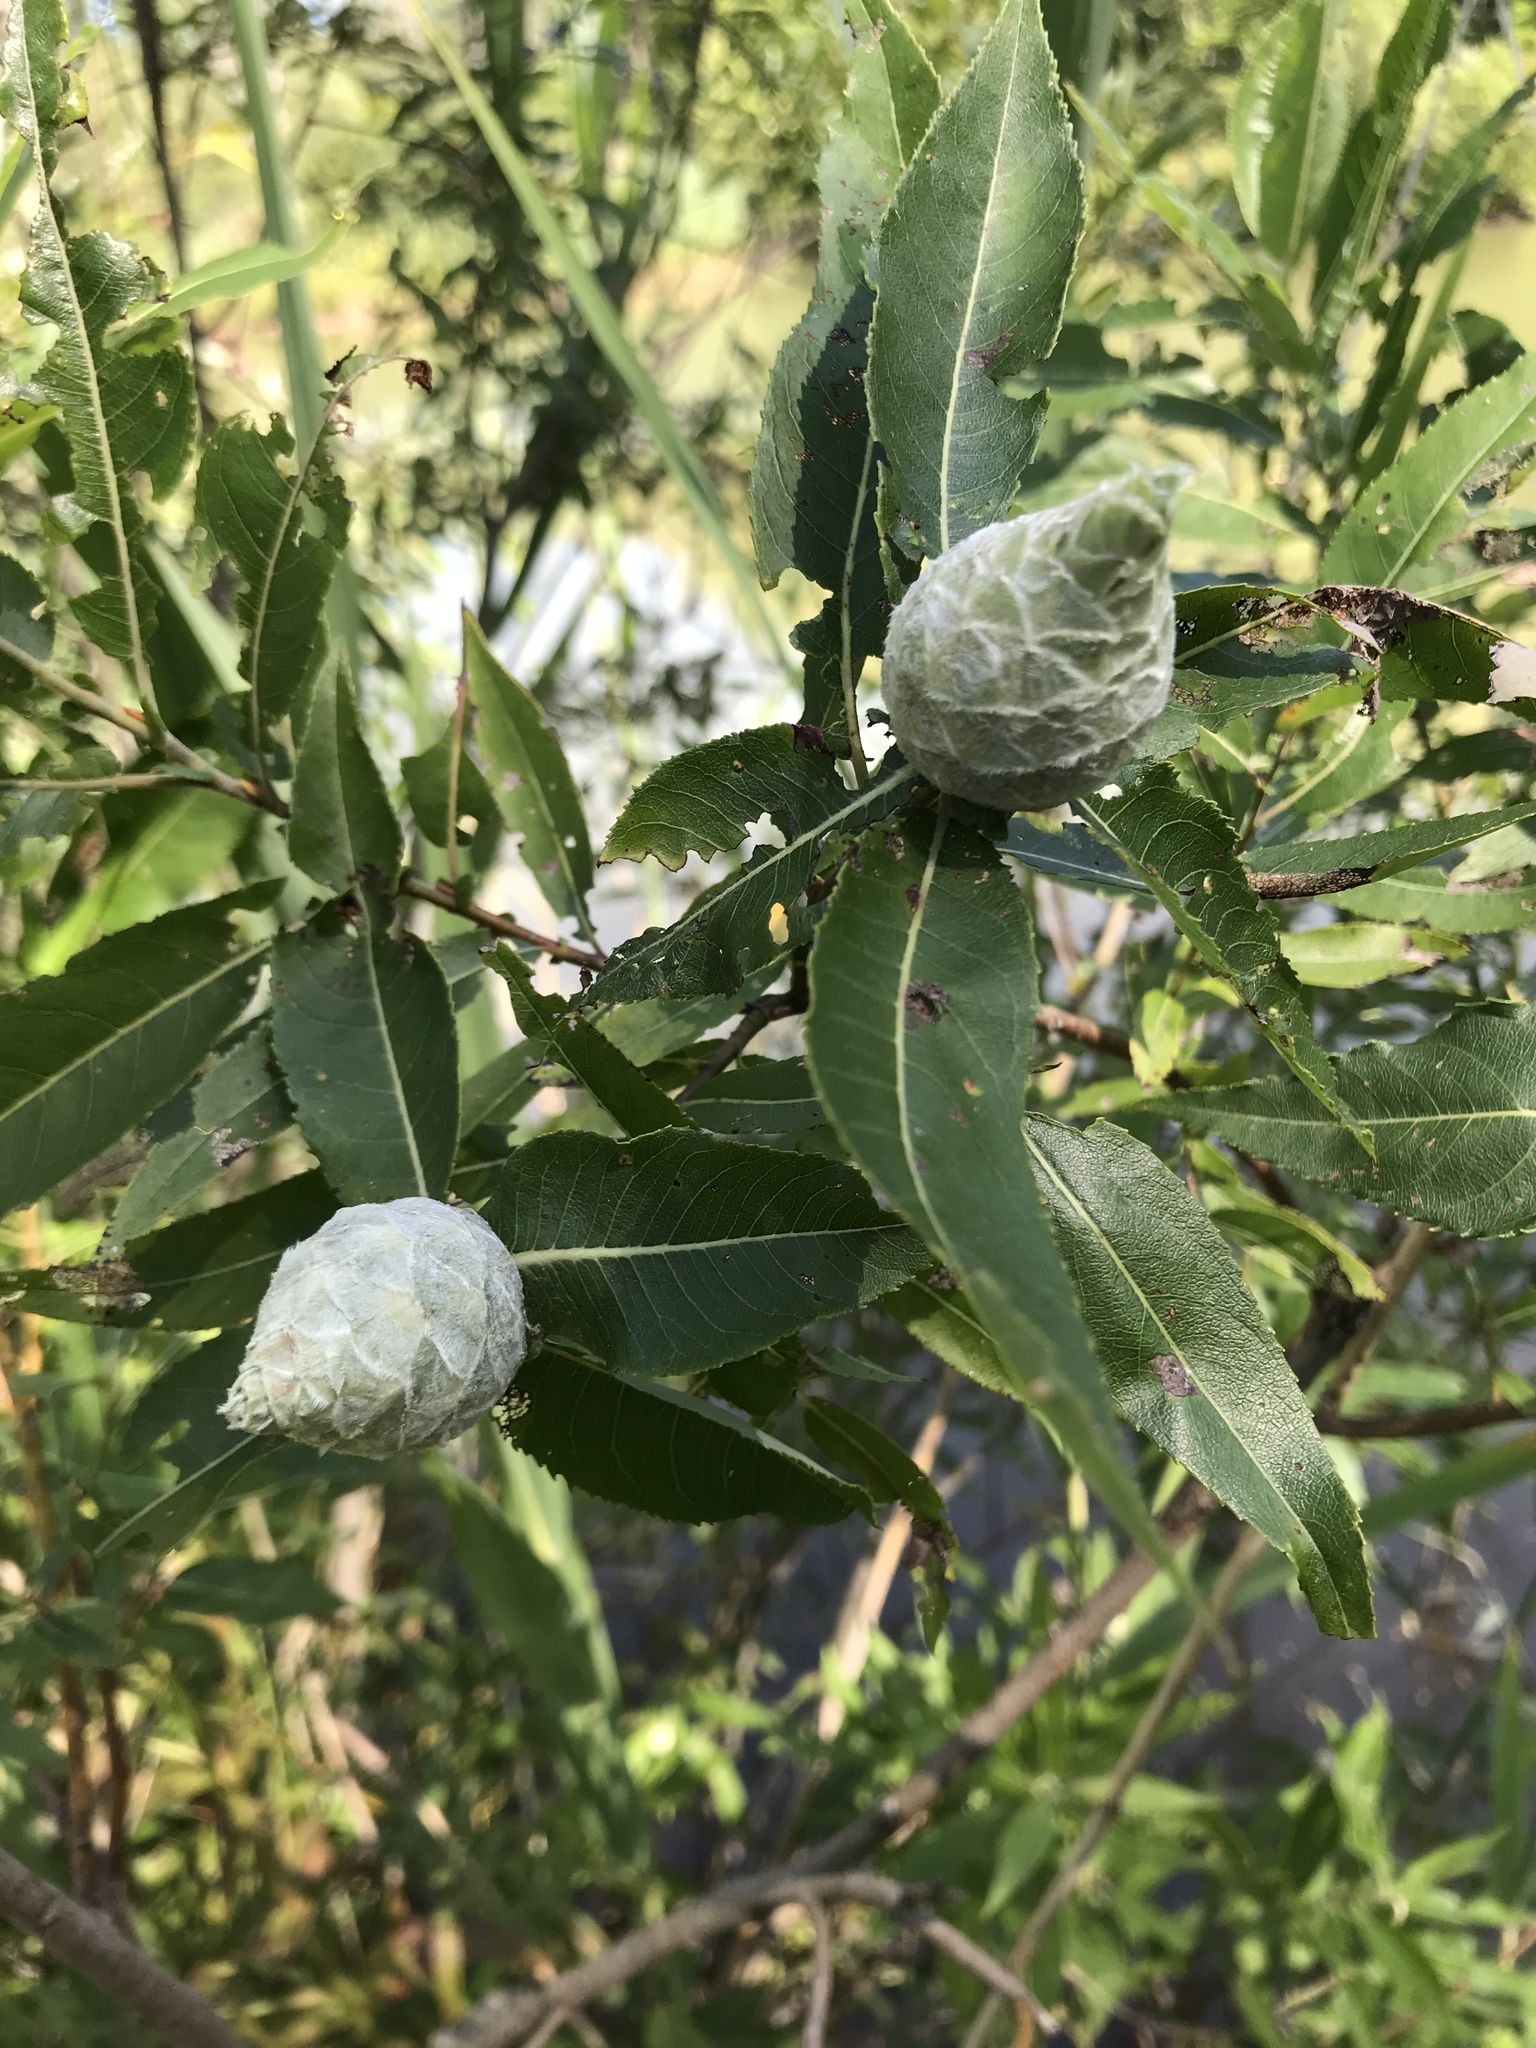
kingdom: Animalia
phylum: Arthropoda
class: Insecta
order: Diptera
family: Cecidomyiidae
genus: Rabdophaga
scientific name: Rabdophaga strobiloides
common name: Willow pinecone gall midge
